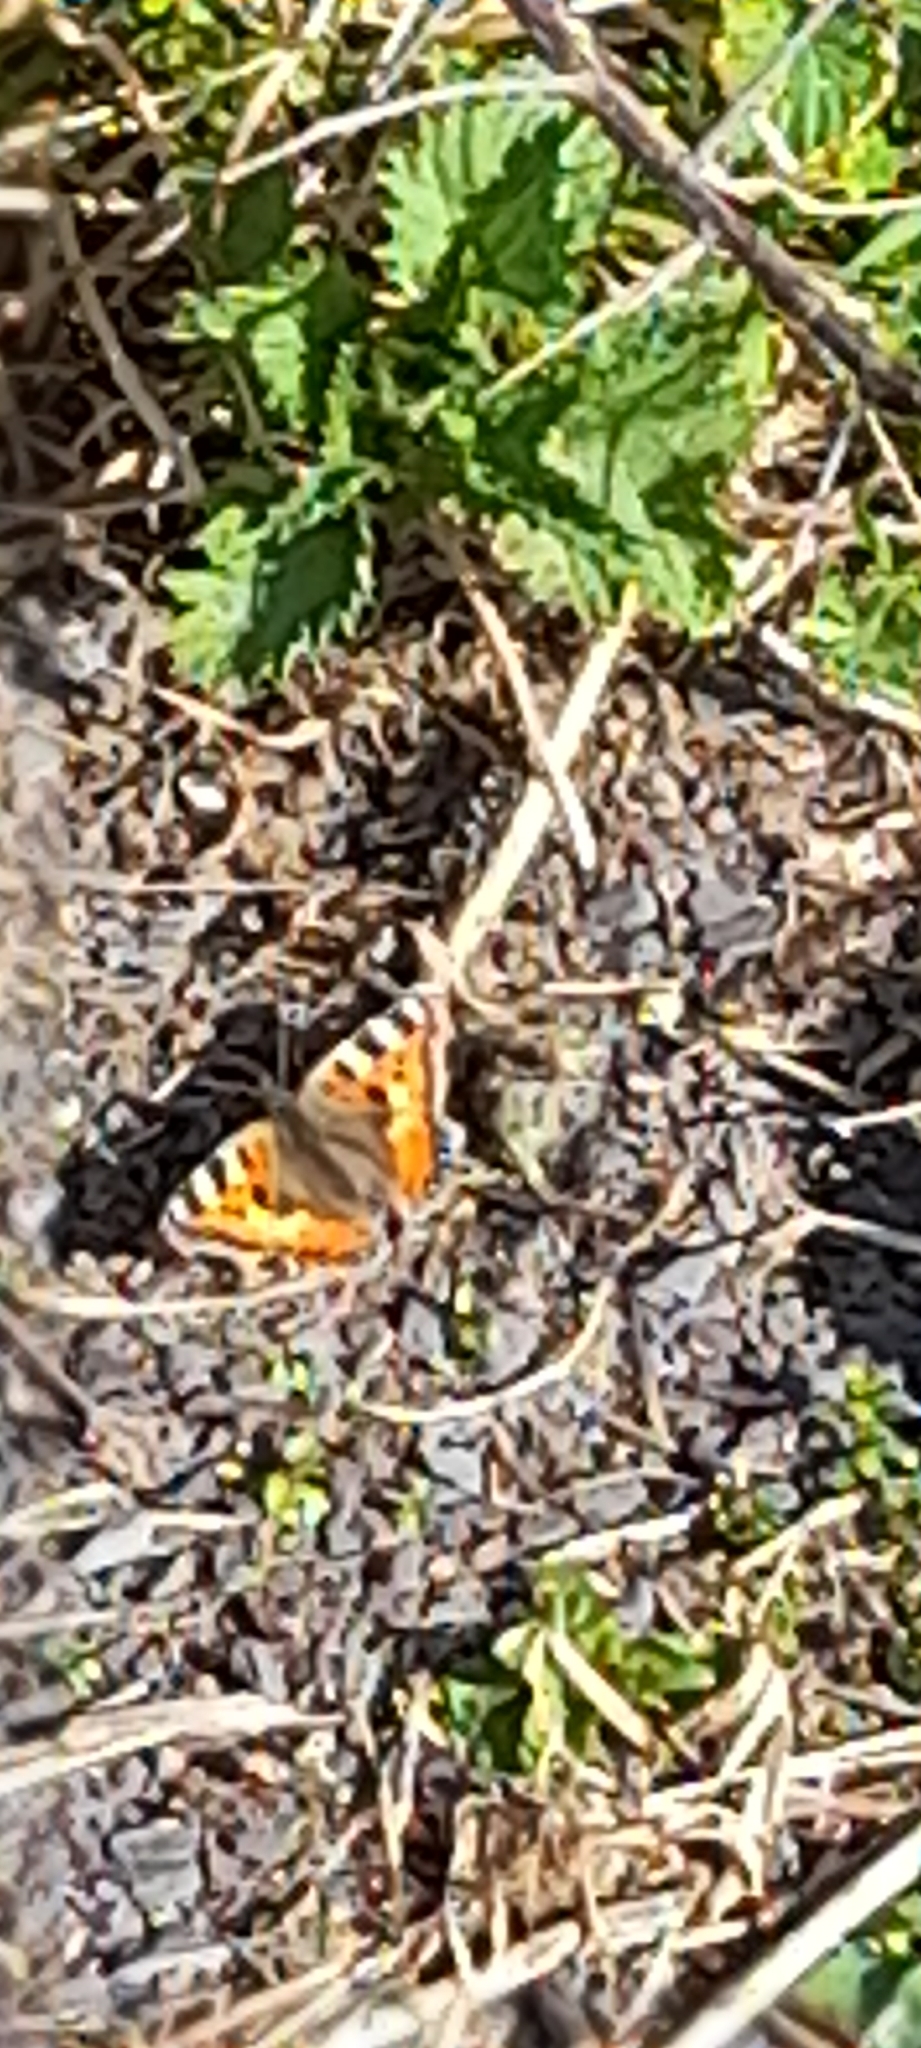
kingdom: Animalia
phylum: Arthropoda
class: Insecta
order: Lepidoptera
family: Nymphalidae
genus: Aglais
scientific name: Aglais urticae
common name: Small tortoiseshell
